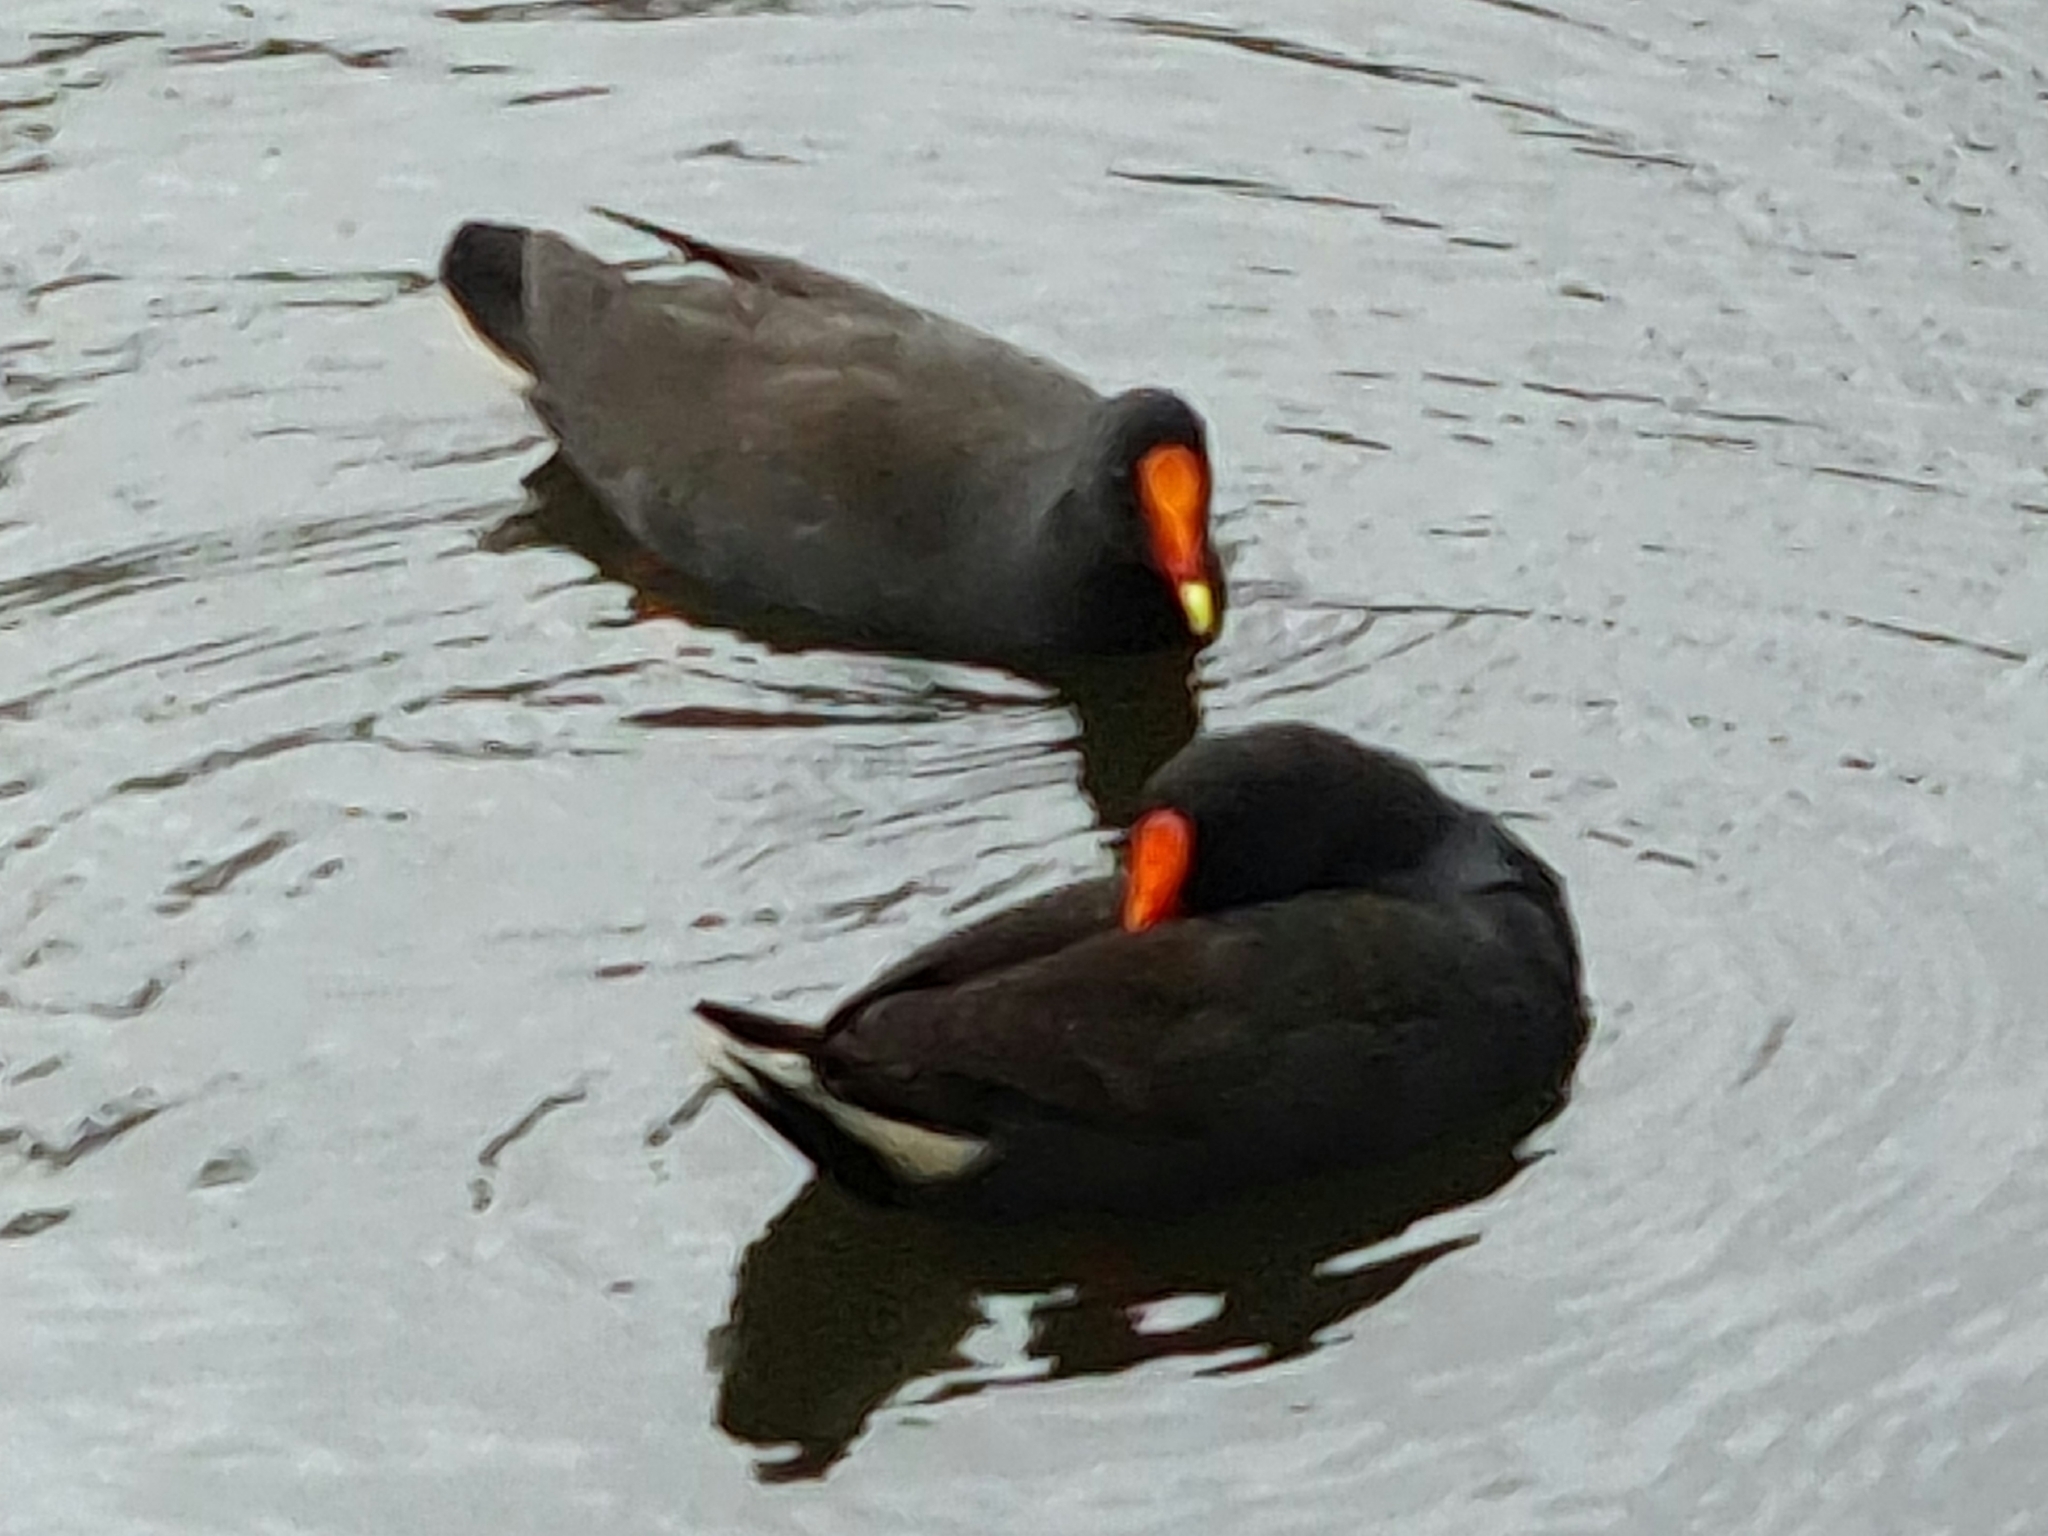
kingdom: Animalia
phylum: Chordata
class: Aves
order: Gruiformes
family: Rallidae
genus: Gallinula
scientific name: Gallinula tenebrosa
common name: Dusky moorhen
